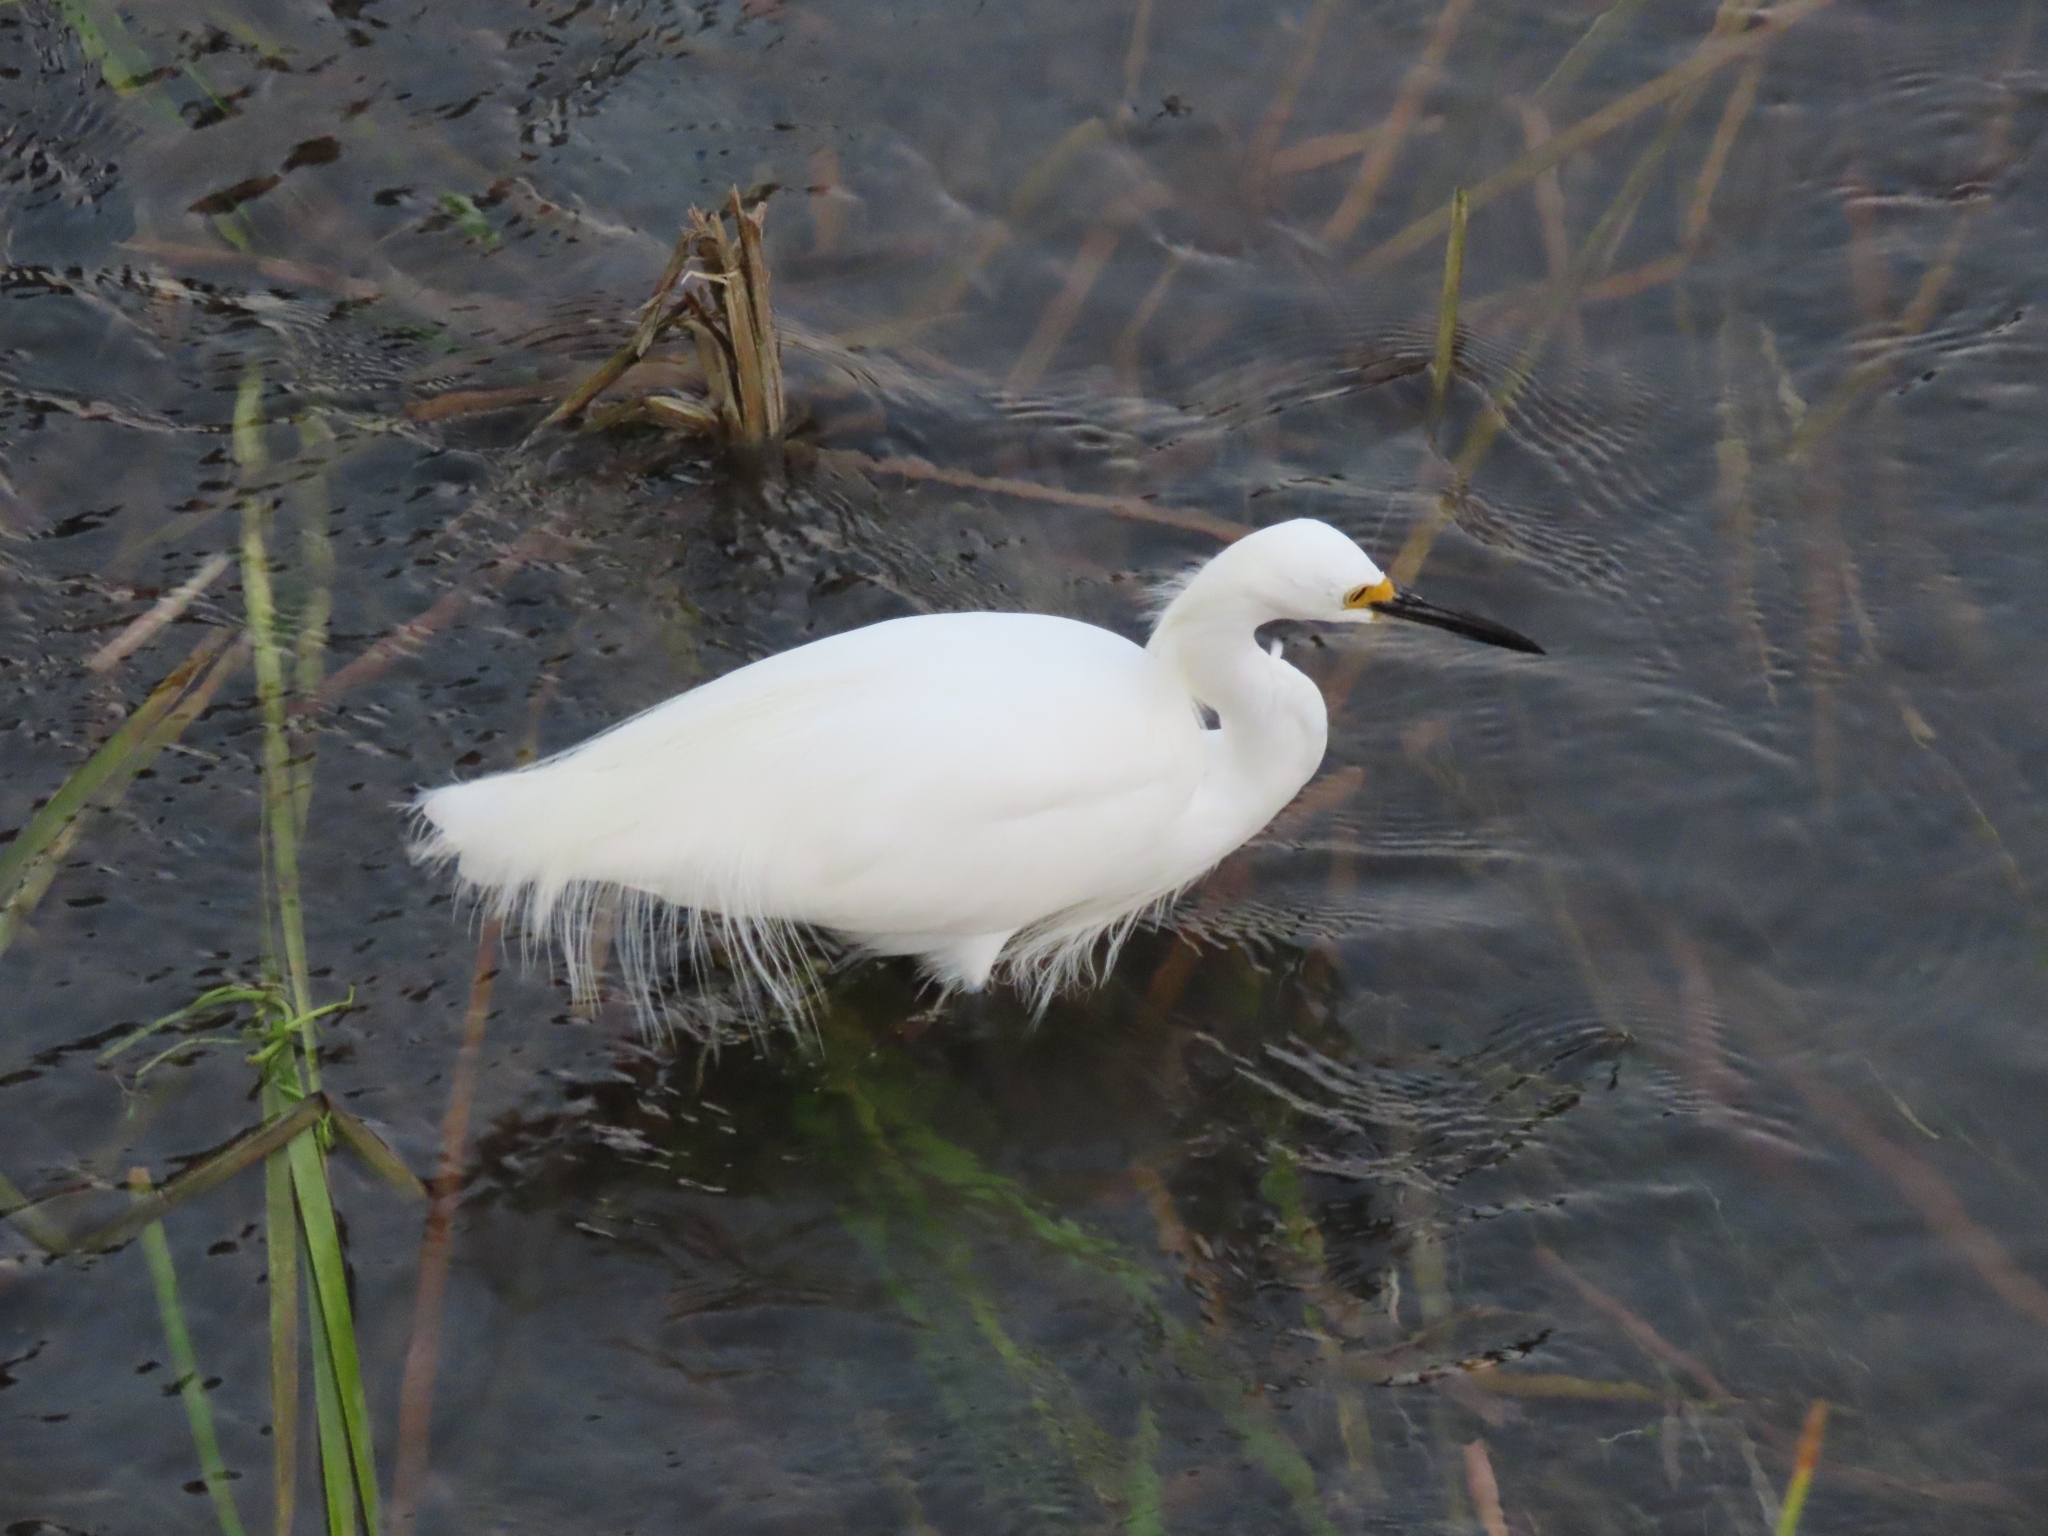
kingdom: Animalia
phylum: Chordata
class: Aves
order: Pelecaniformes
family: Ardeidae
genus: Egretta
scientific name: Egretta thula
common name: Snowy egret
